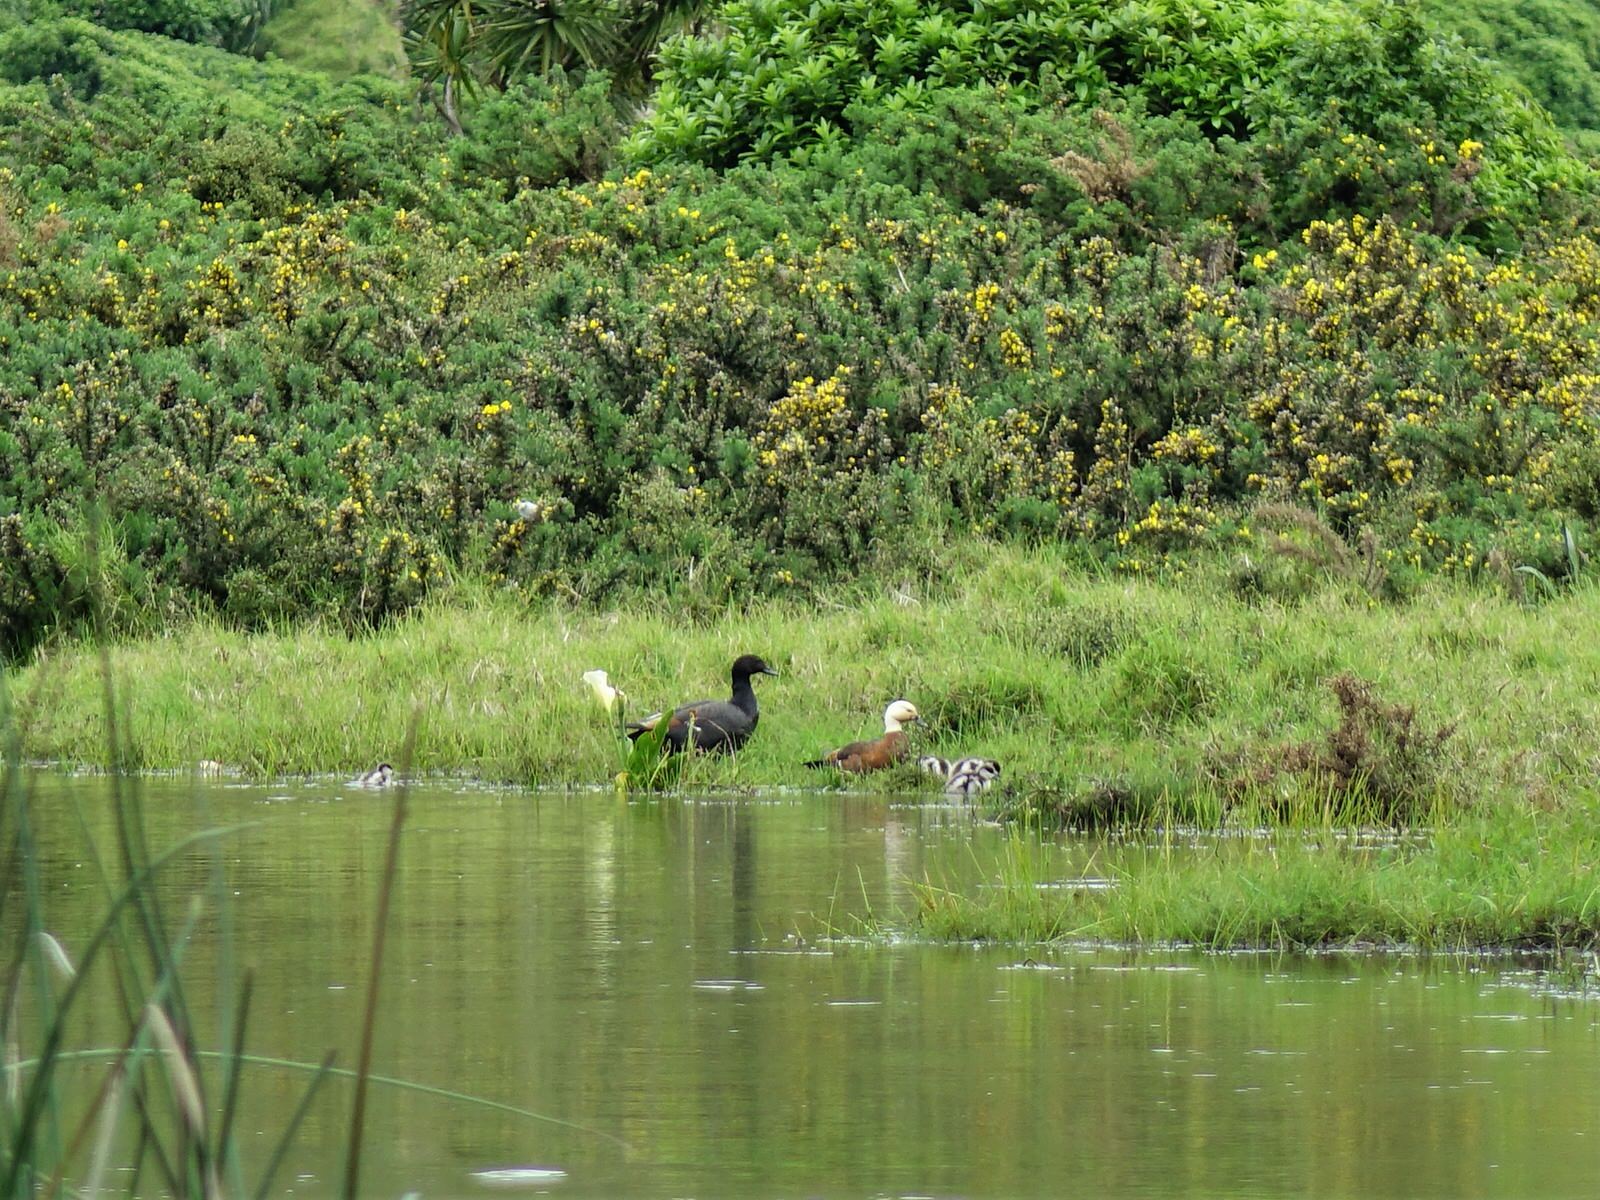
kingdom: Animalia
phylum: Chordata
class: Aves
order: Anseriformes
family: Anatidae
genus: Tadorna
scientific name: Tadorna variegata
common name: Paradise shelduck
